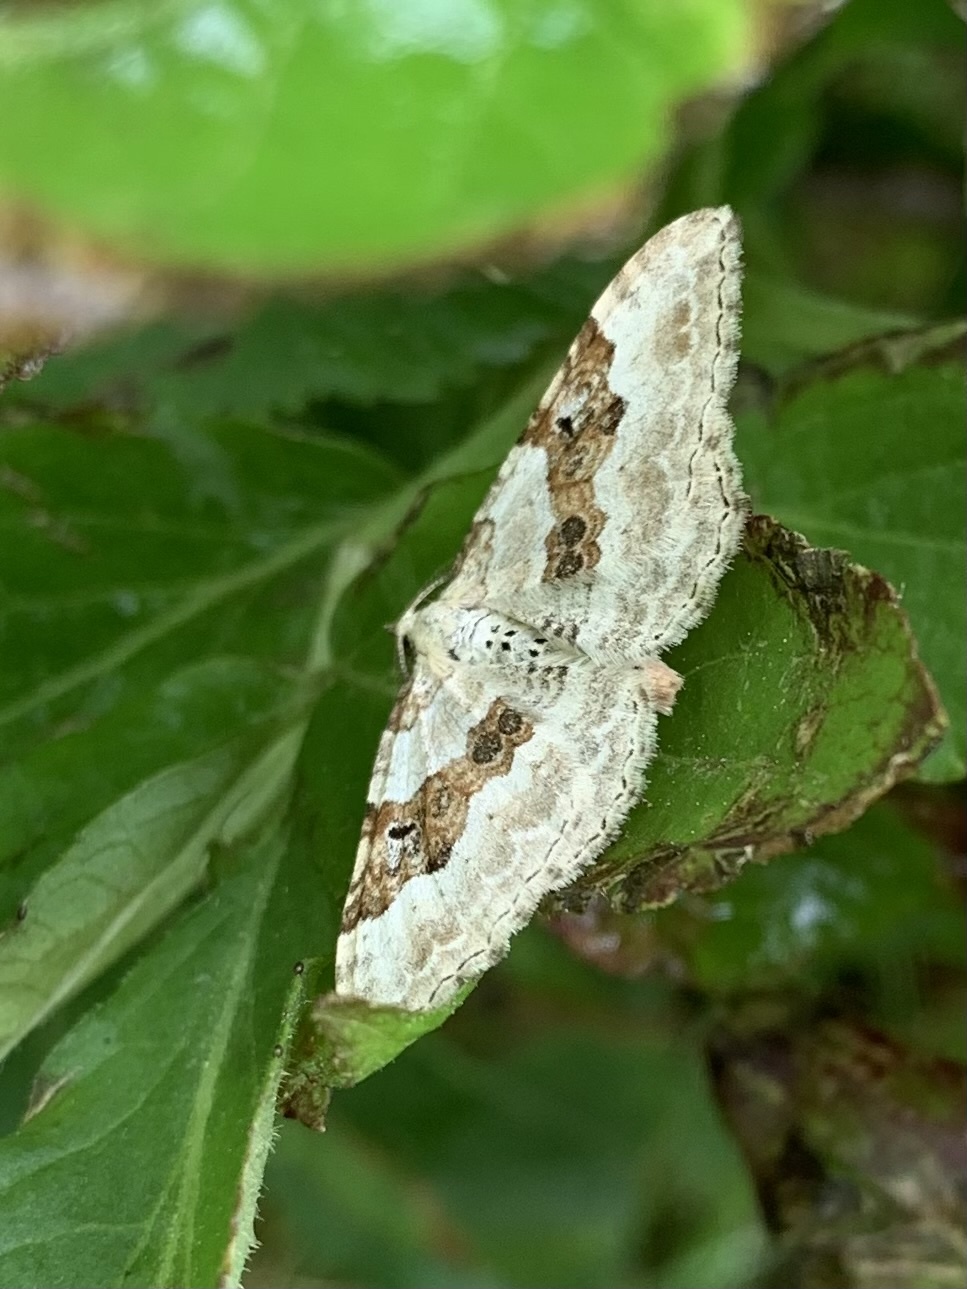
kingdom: Animalia
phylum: Arthropoda
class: Insecta
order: Lepidoptera
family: Geometridae
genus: Xanthorhoe
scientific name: Xanthorhoe montanata
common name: Silver-ground carpet
